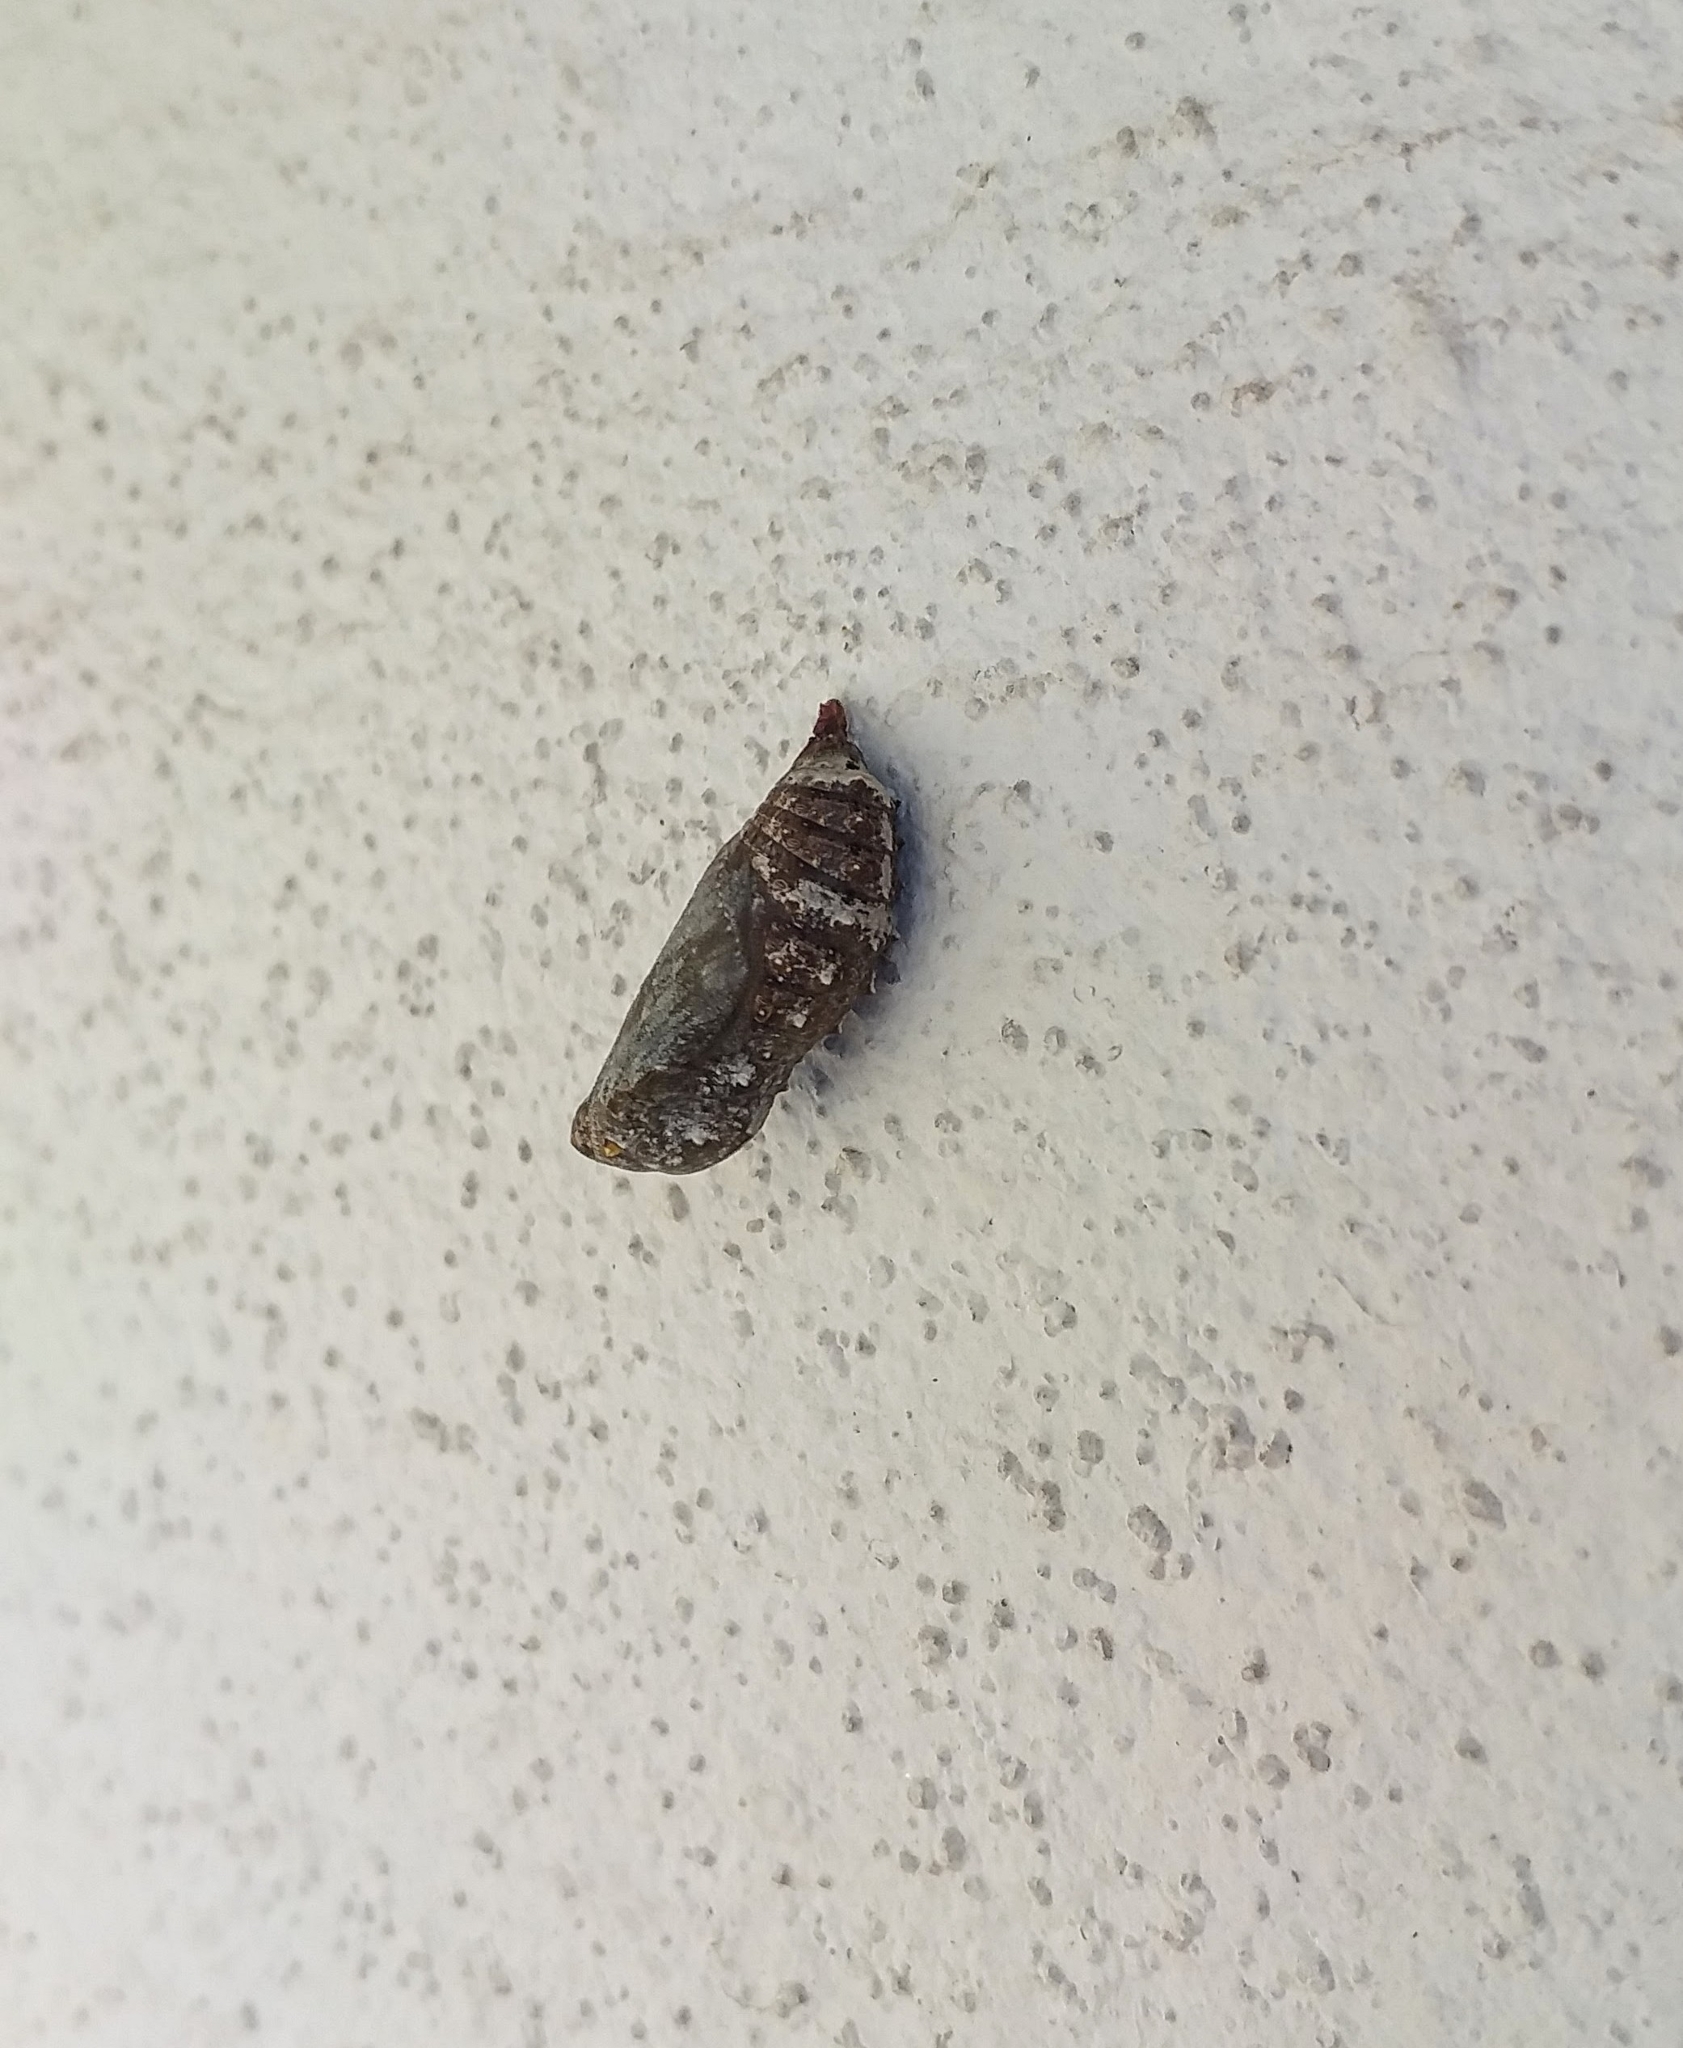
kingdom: Animalia
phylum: Arthropoda
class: Insecta
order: Lepidoptera
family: Nymphalidae
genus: Junonia
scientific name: Junonia lemonias
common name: Lemon pansy
